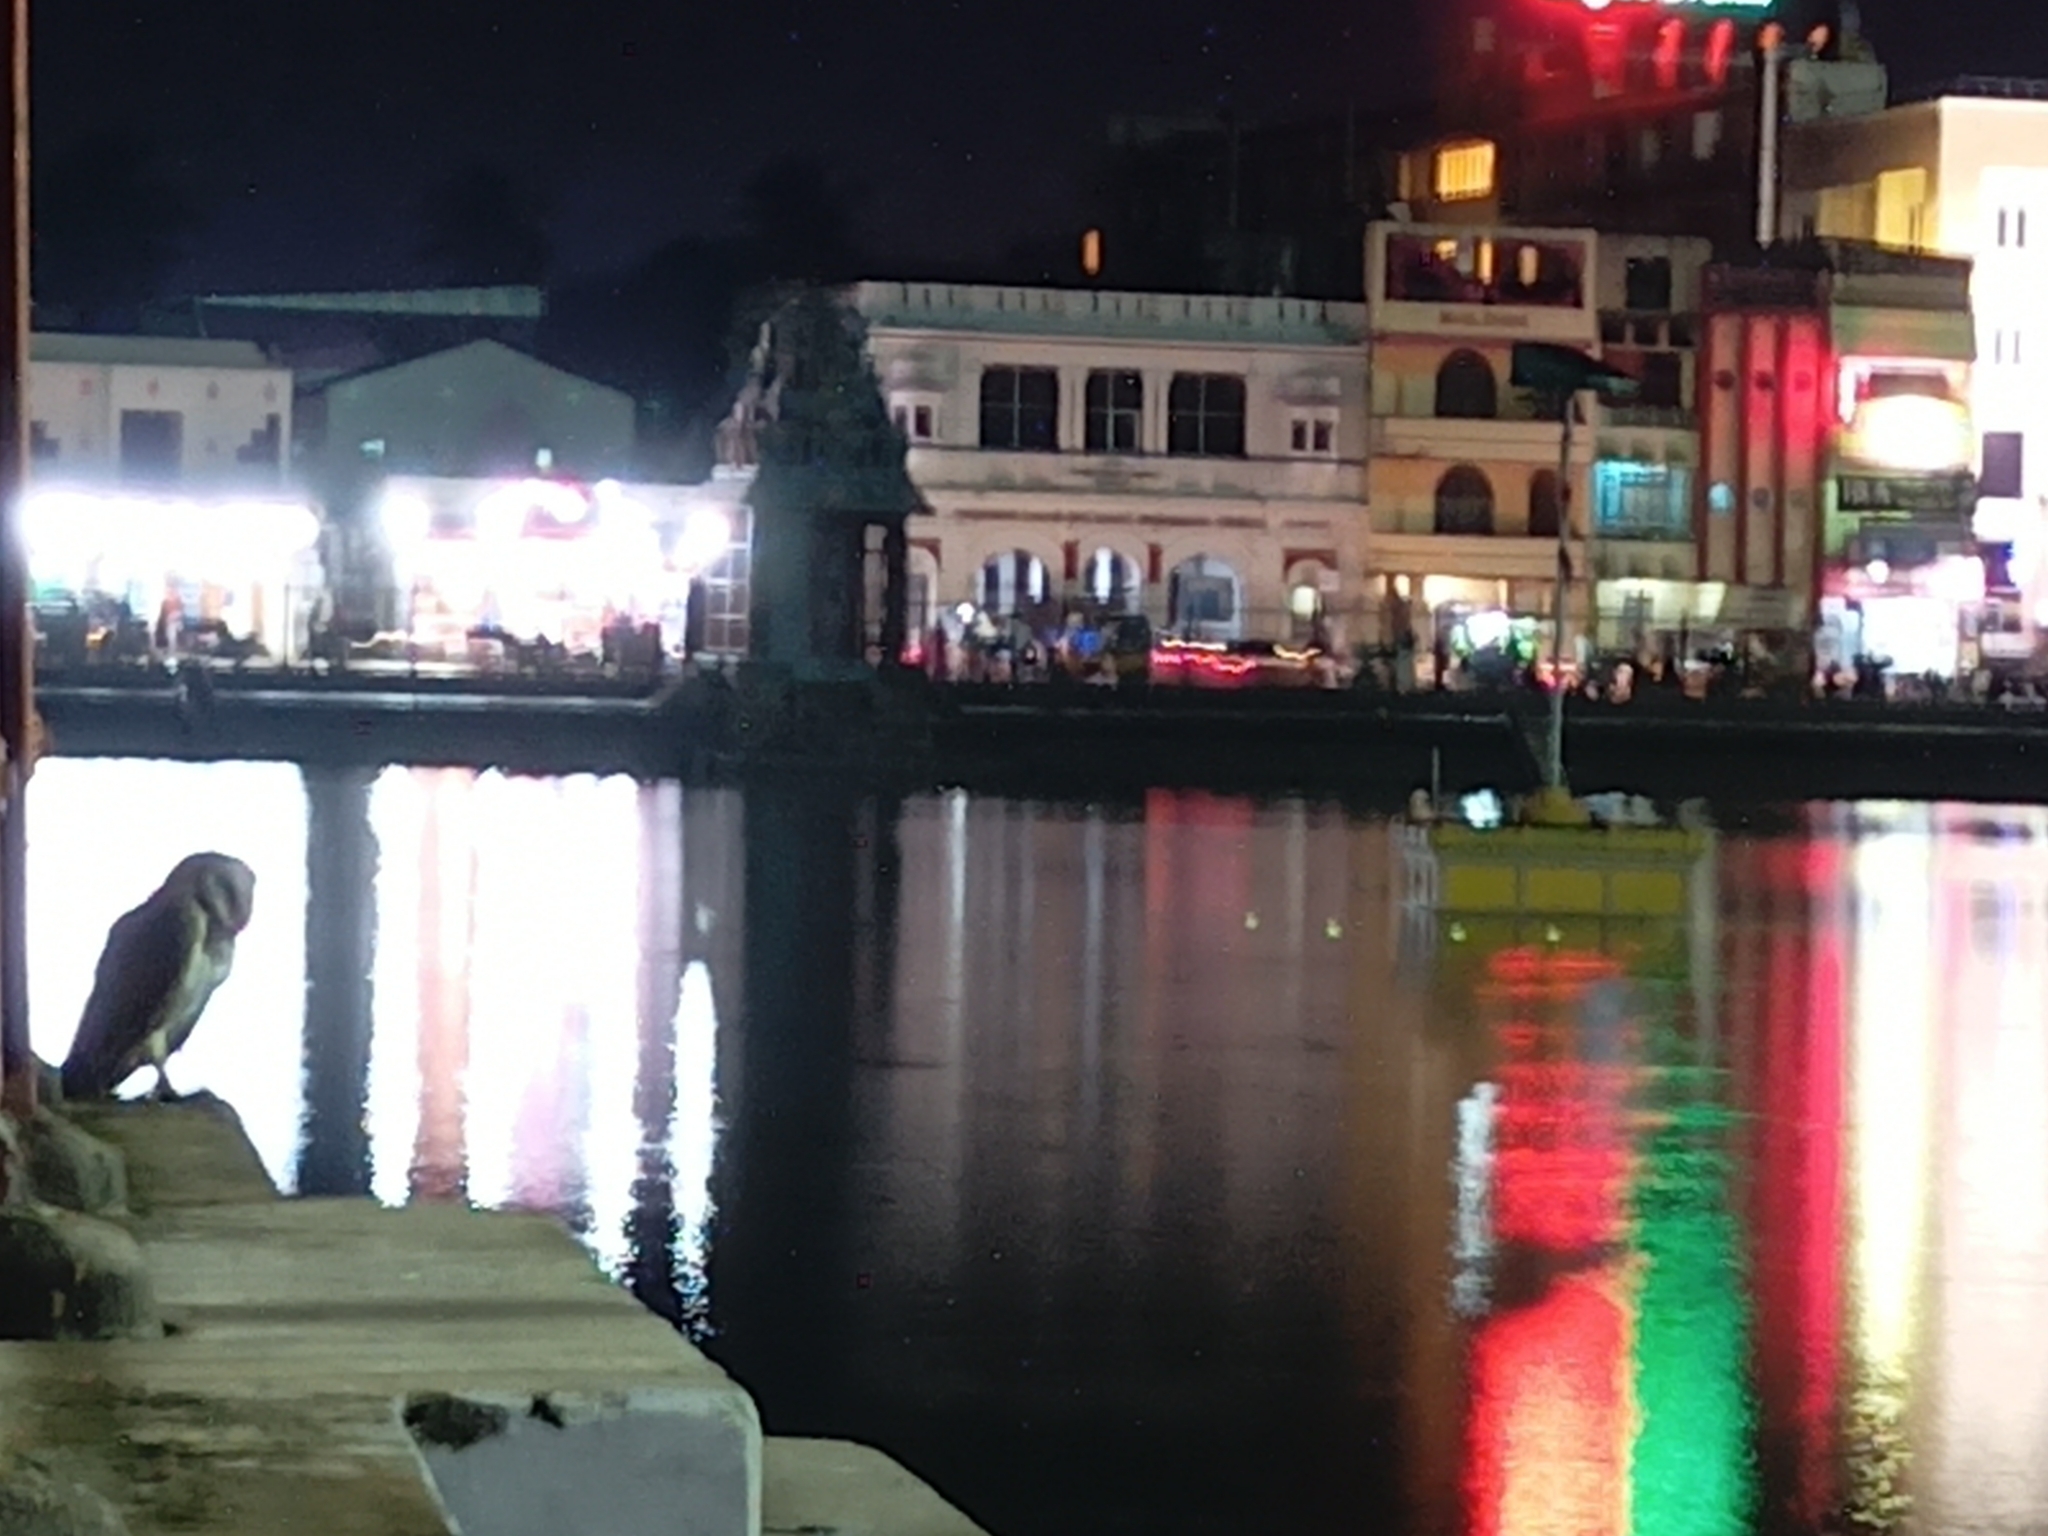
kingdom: Animalia
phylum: Chordata
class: Aves
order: Strigiformes
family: Tytonidae
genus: Tyto
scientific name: Tyto alba
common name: Barn owl
